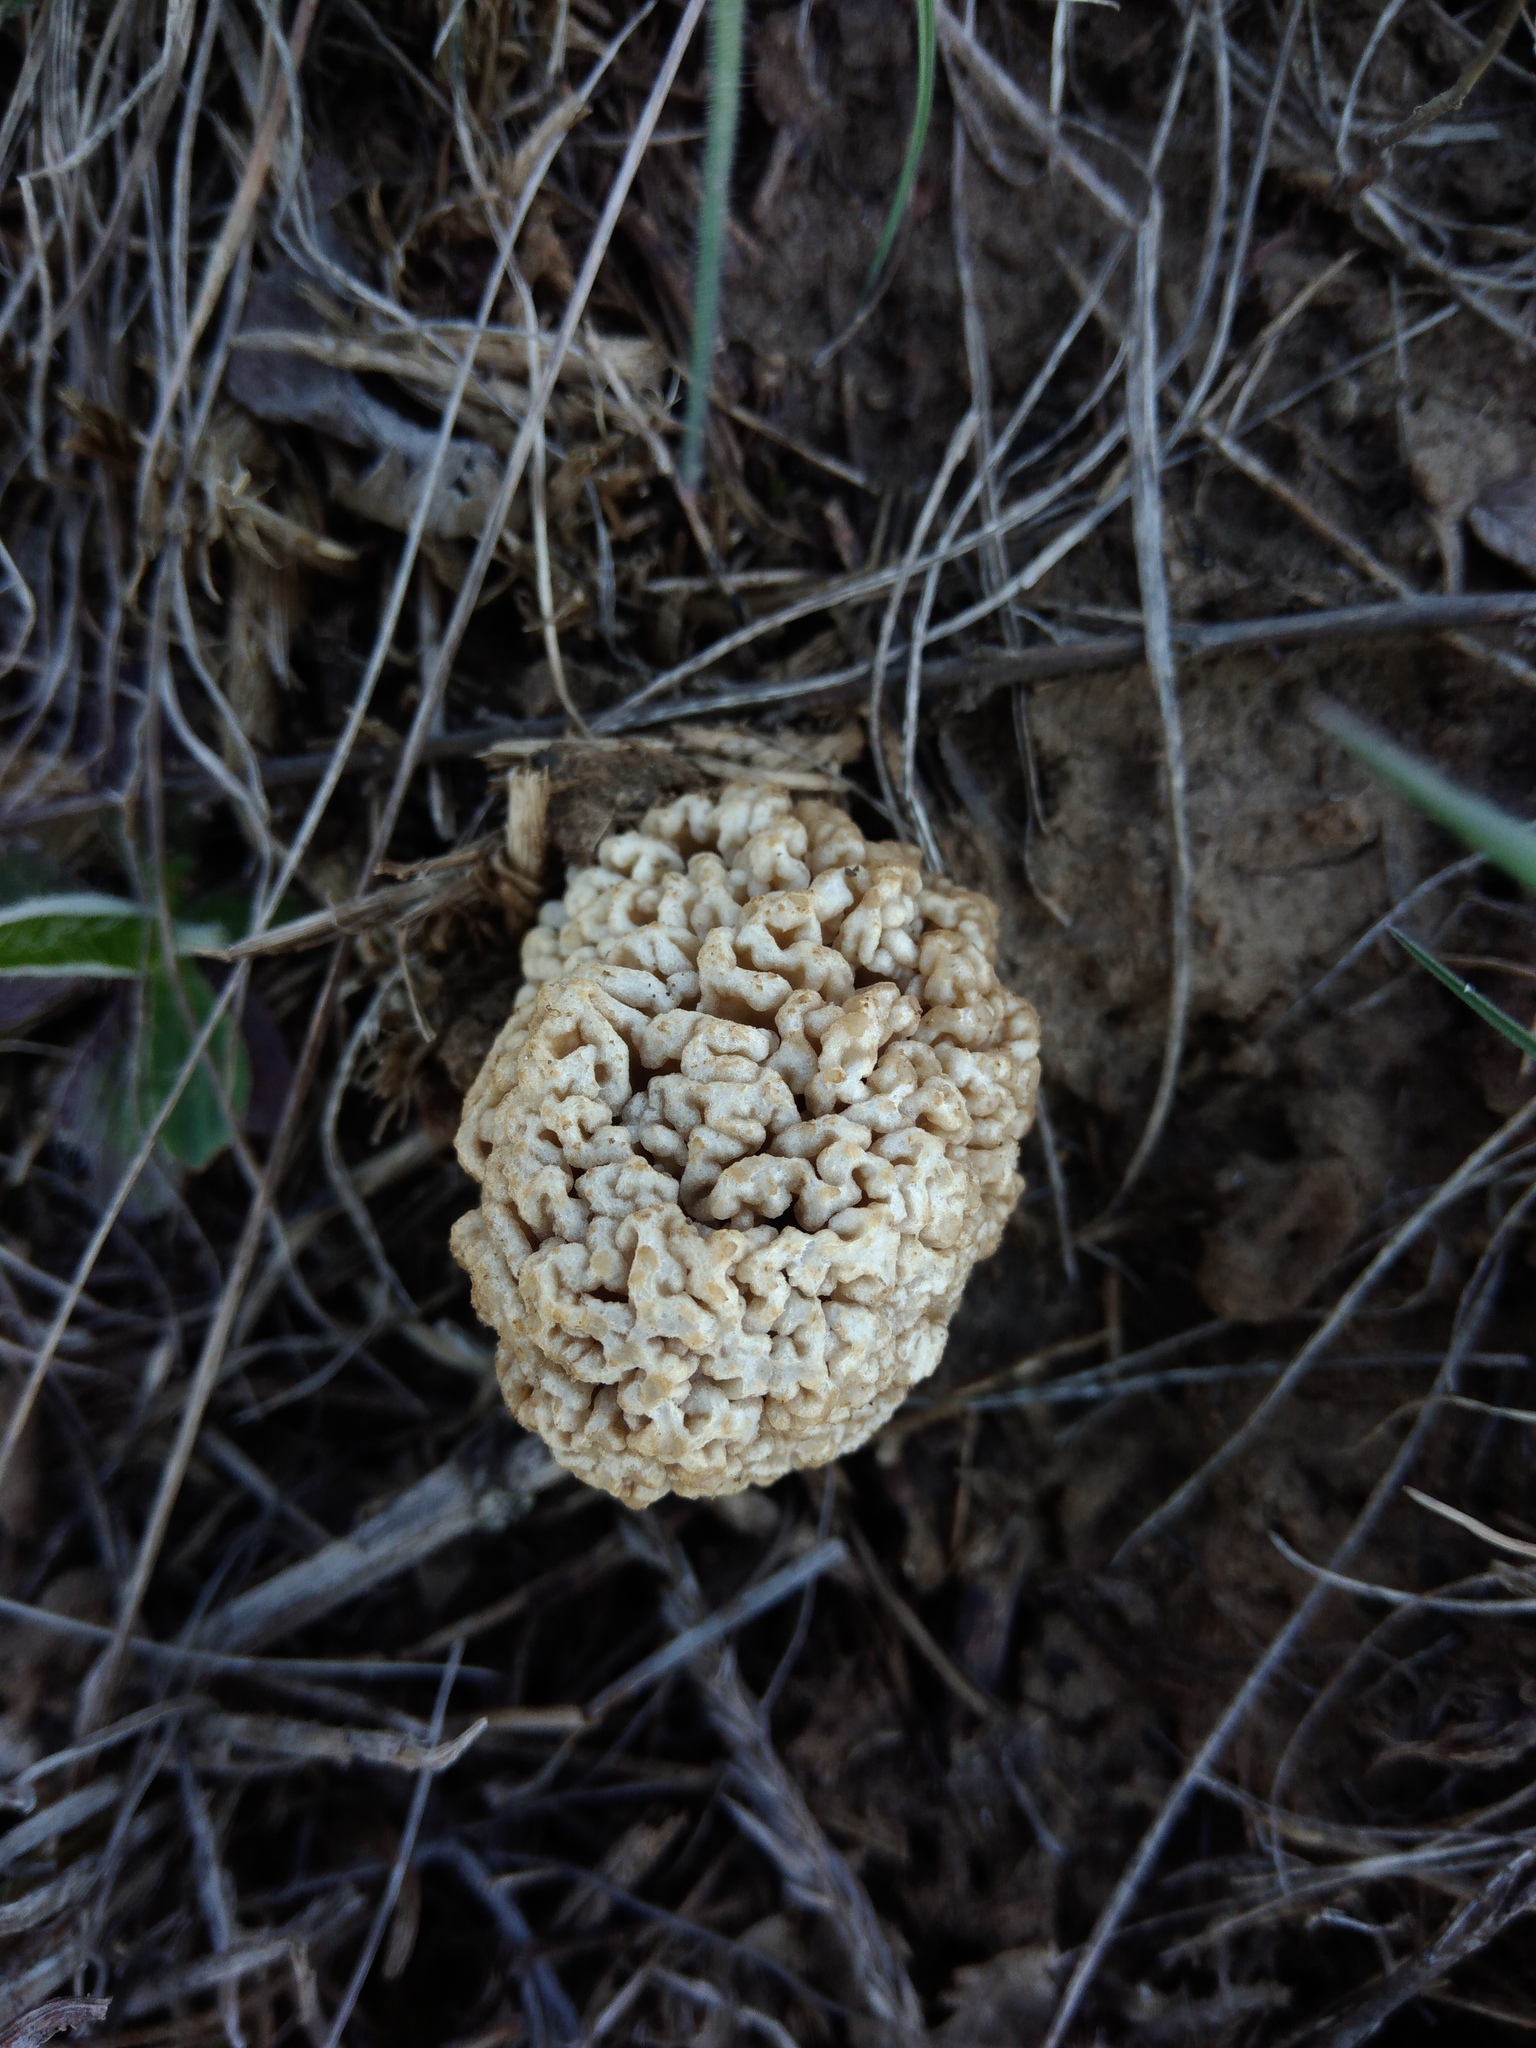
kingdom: Fungi
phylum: Ascomycota
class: Pezizomycetes
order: Pezizales
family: Morchellaceae
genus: Morchella
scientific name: Morchella steppicola
